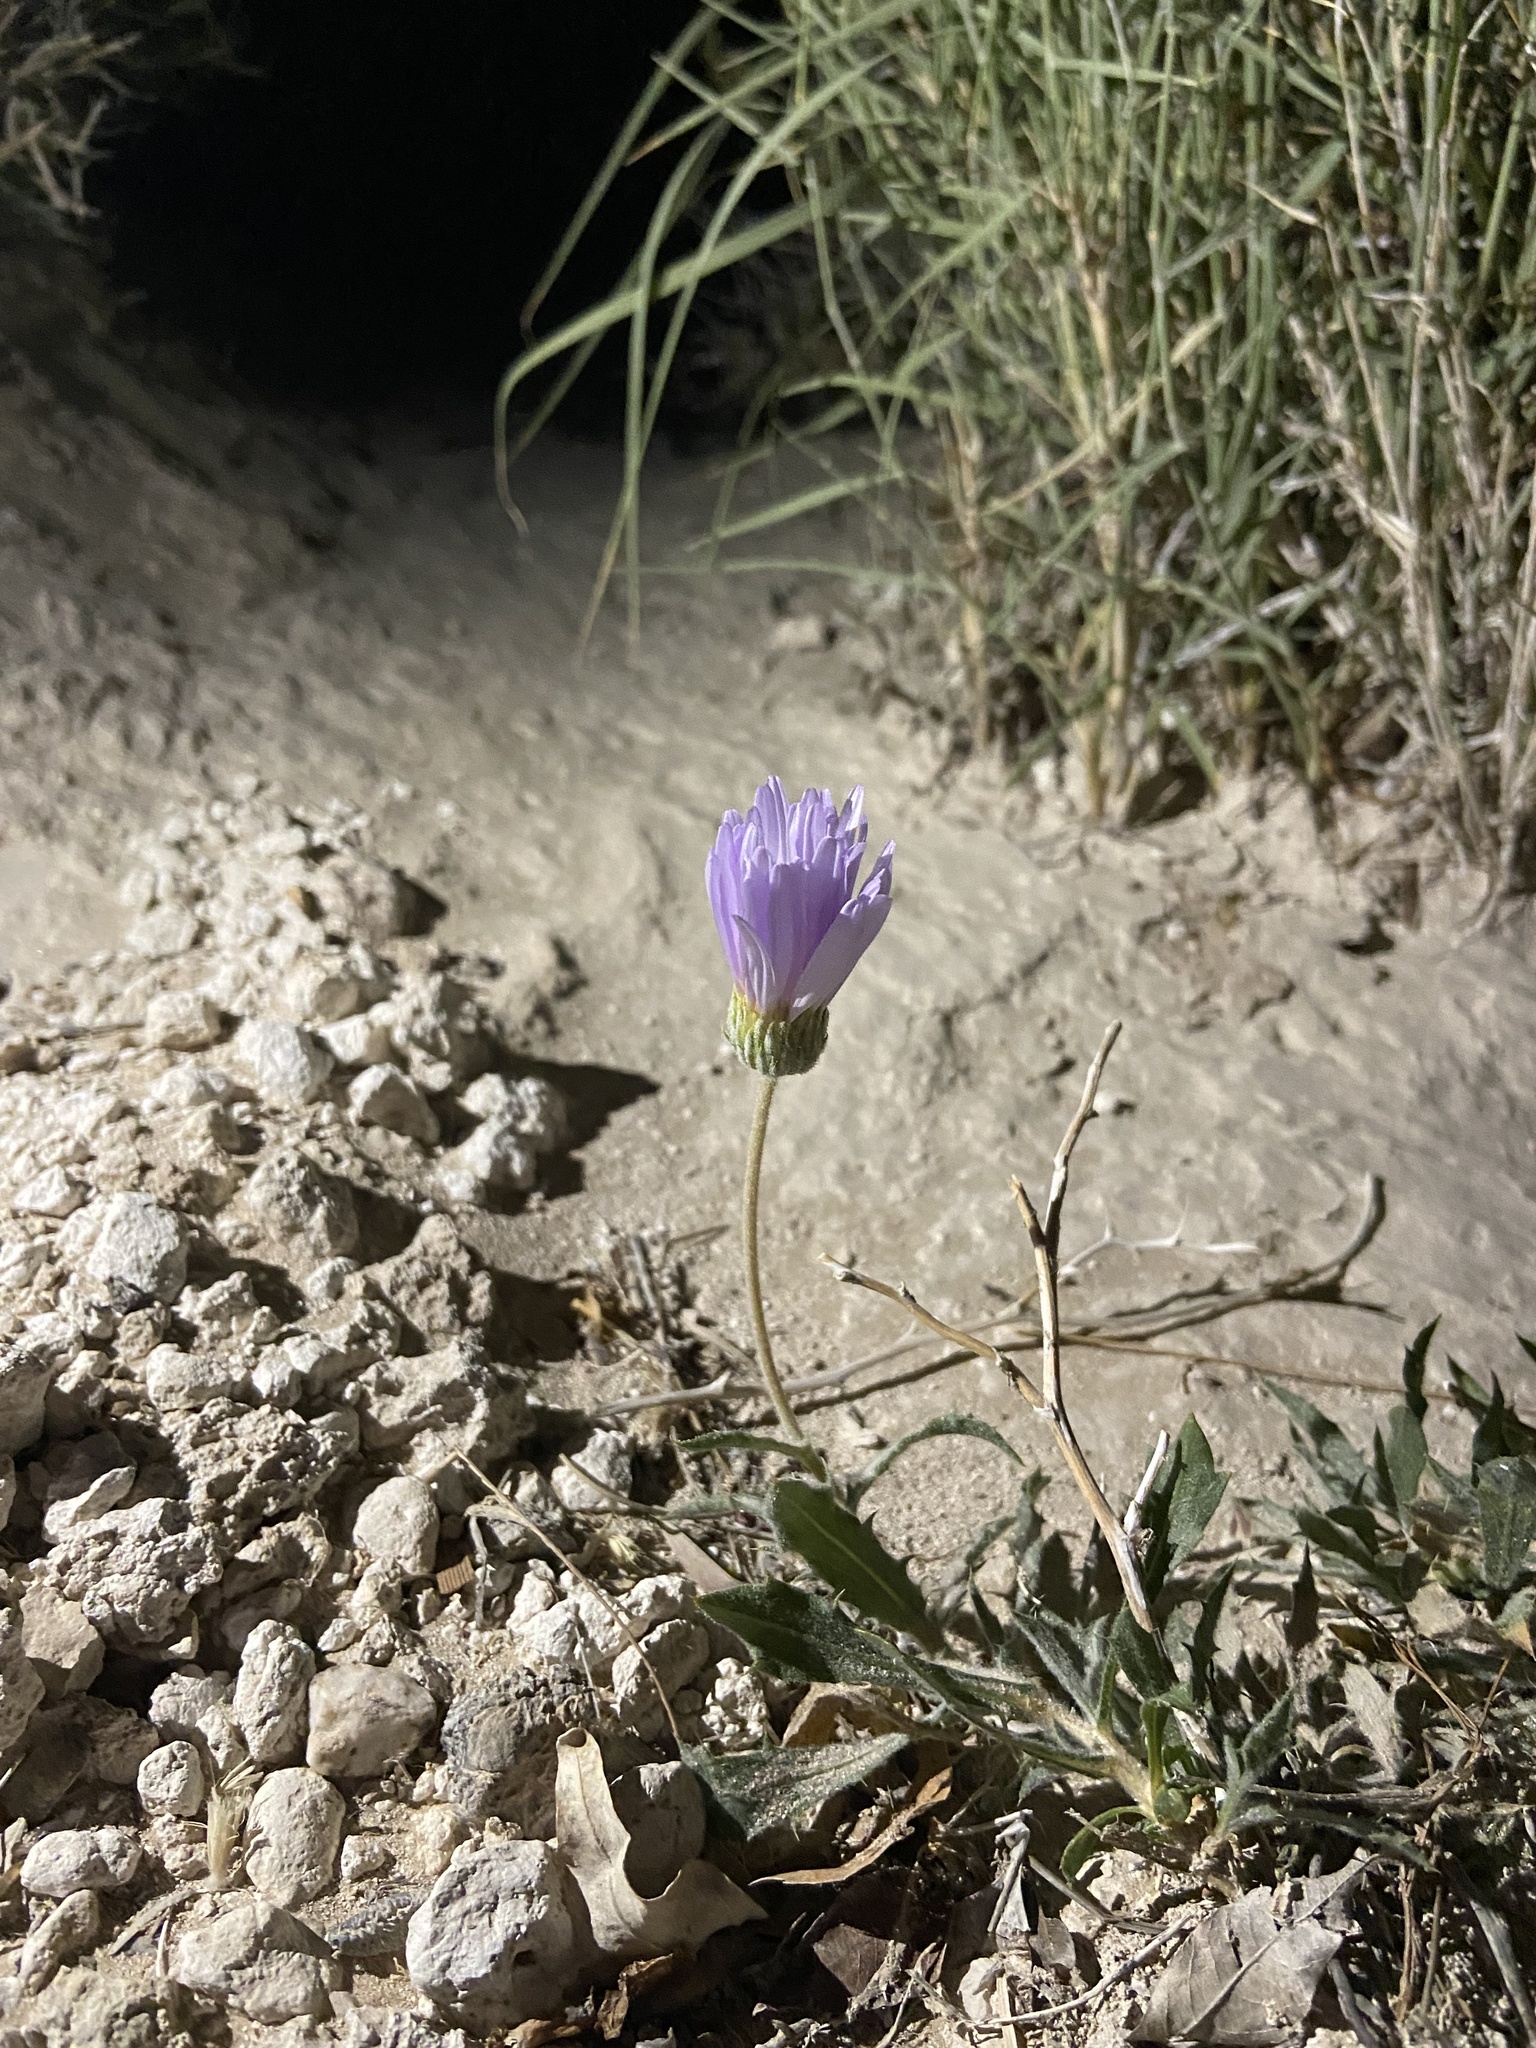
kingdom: Plantae
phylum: Tracheophyta
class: Magnoliopsida
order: Asterales
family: Asteraceae
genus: Xylorhiza
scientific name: Xylorhiza tortifolia
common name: Hurt-leaf woody-aster
